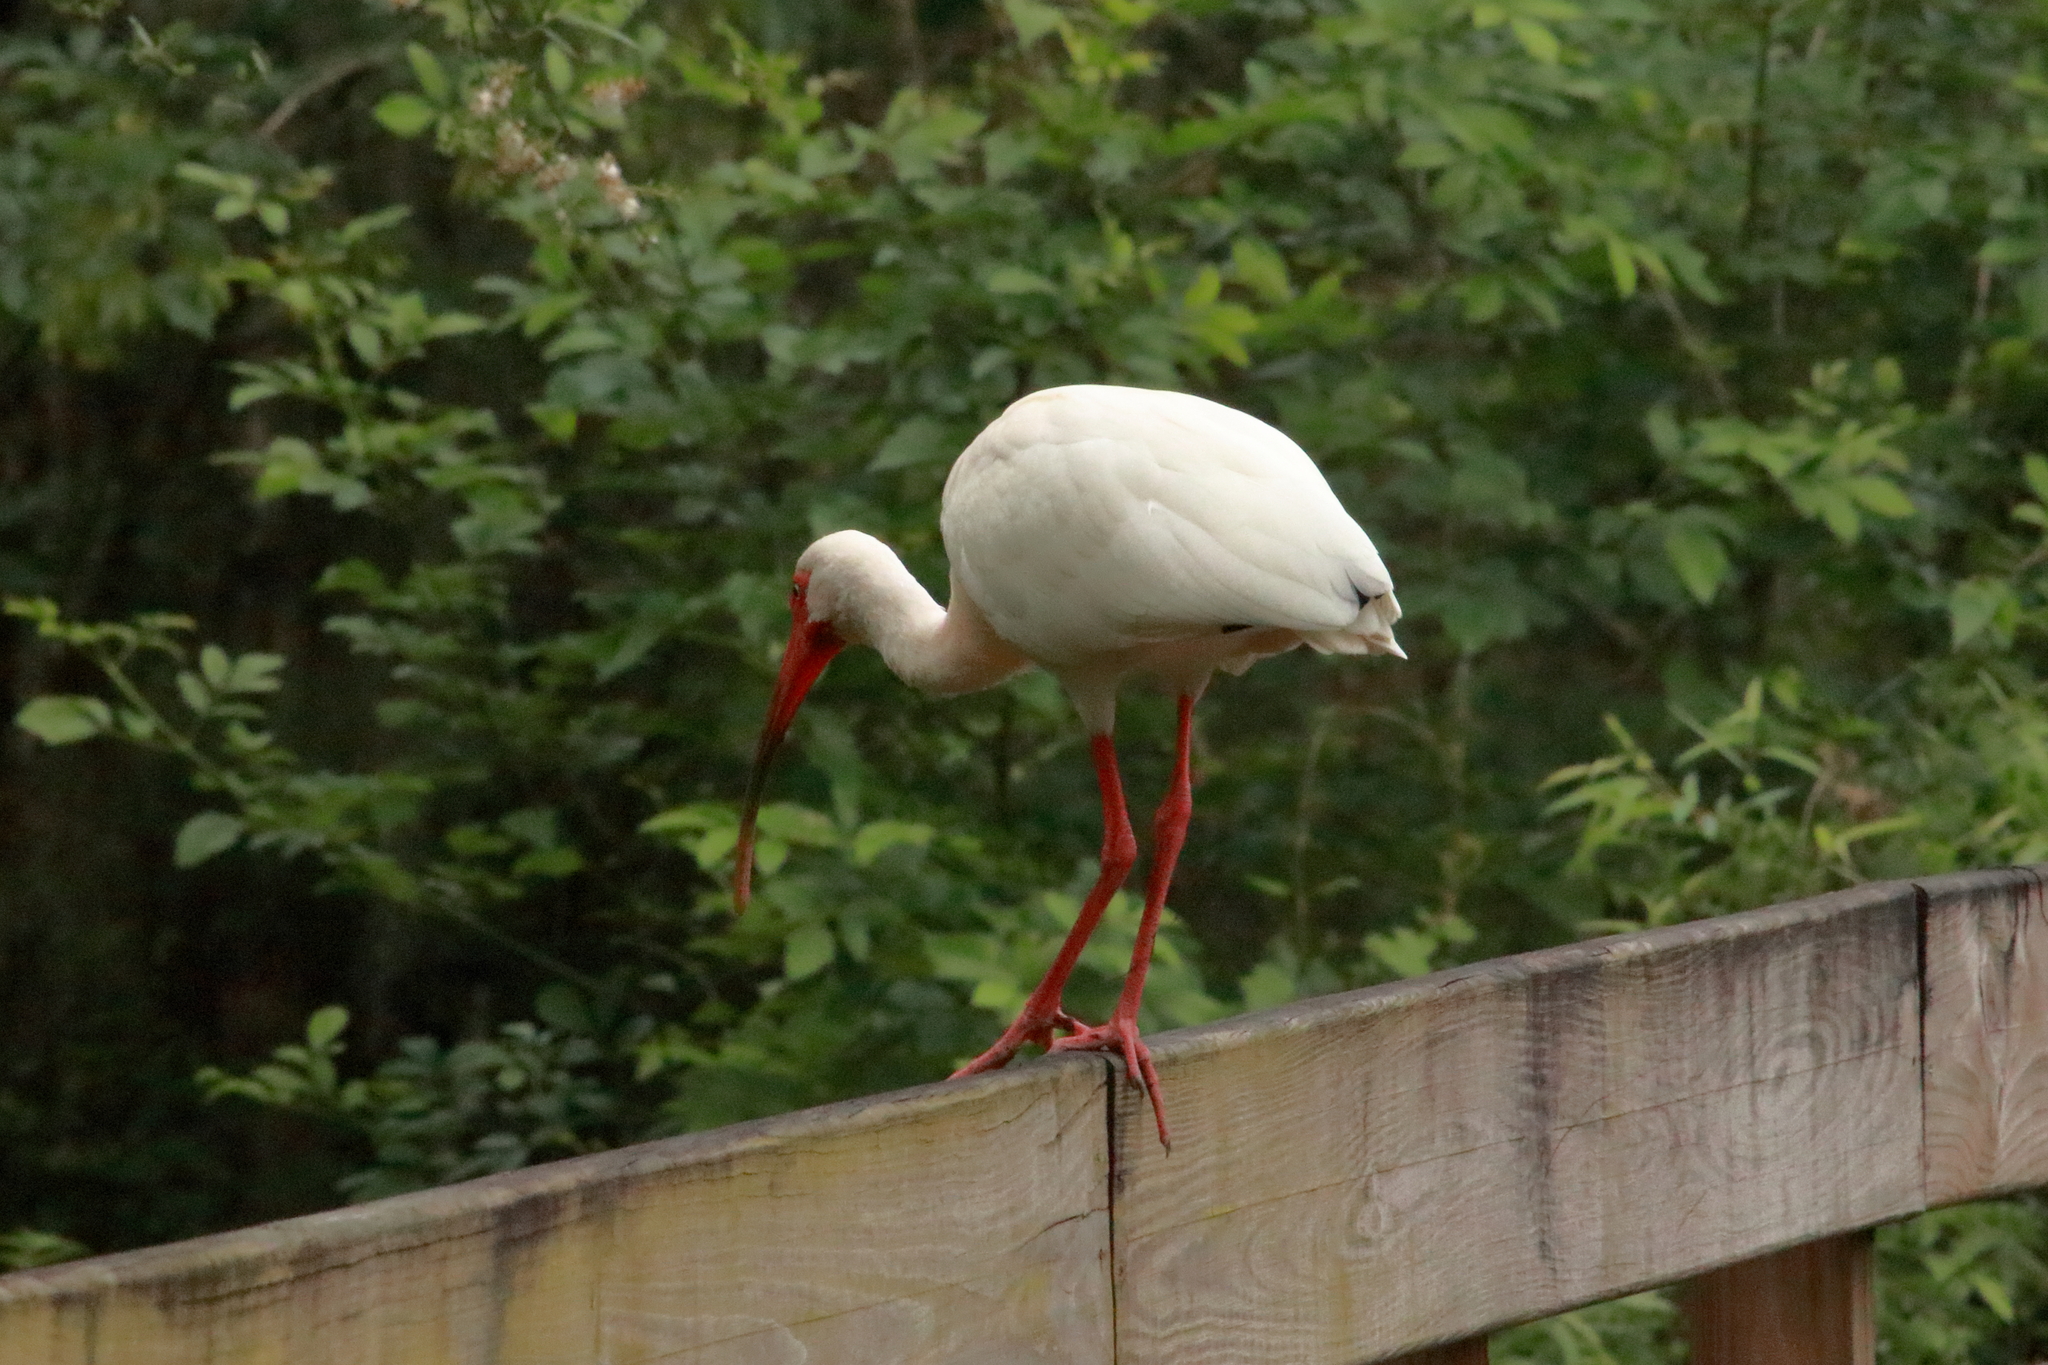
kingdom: Animalia
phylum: Chordata
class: Aves
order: Pelecaniformes
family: Threskiornithidae
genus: Eudocimus
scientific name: Eudocimus albus
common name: White ibis
